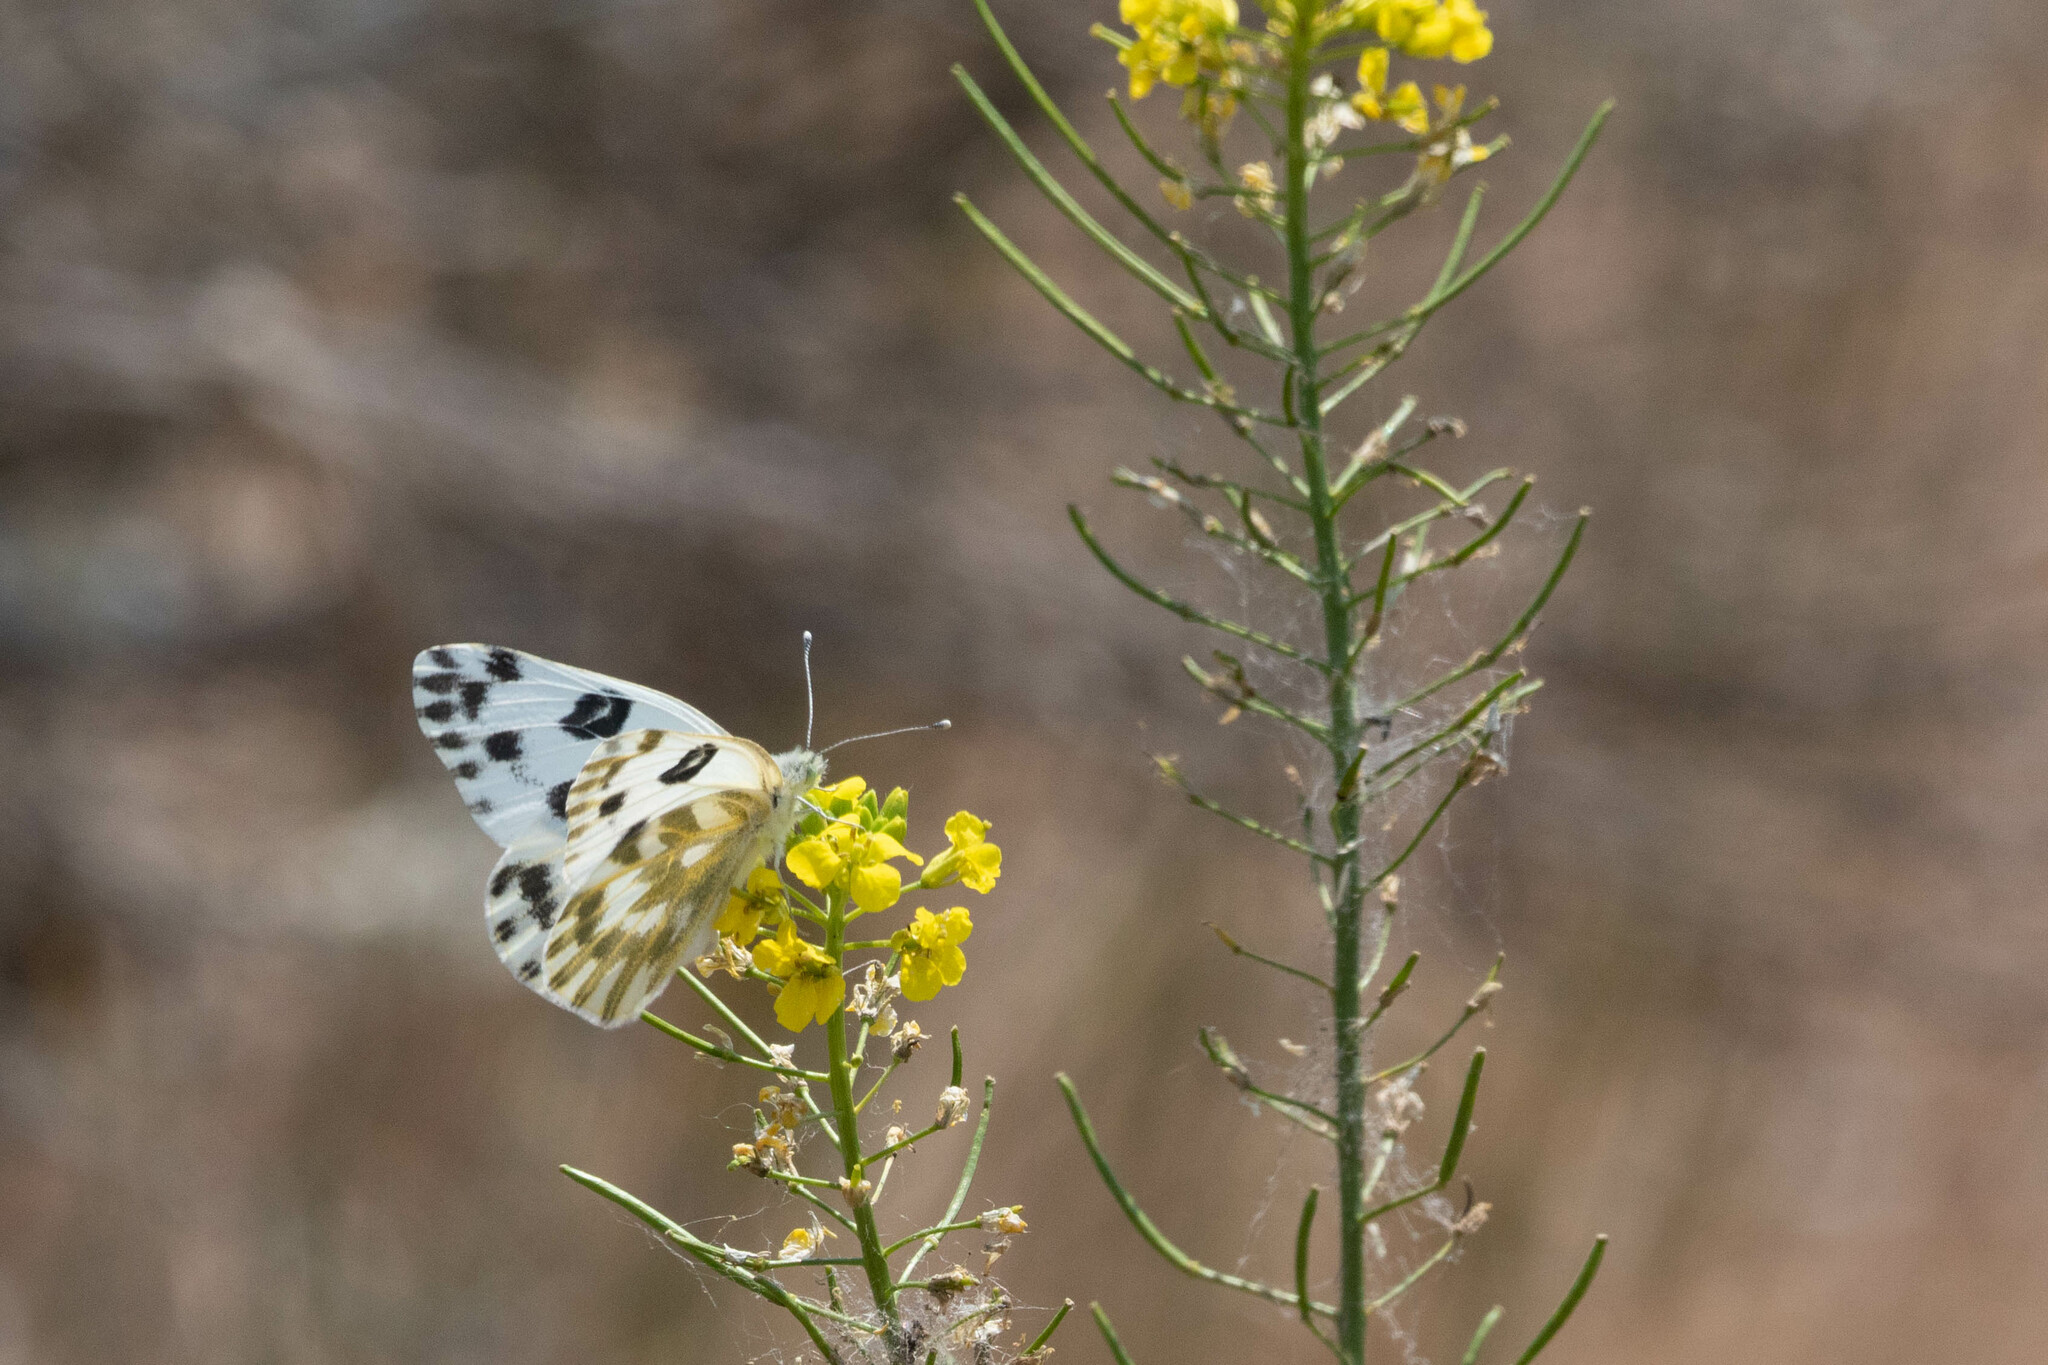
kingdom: Animalia
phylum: Arthropoda
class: Insecta
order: Lepidoptera
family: Pieridae
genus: Pontia
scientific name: Pontia beckerii
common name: Becker's white
